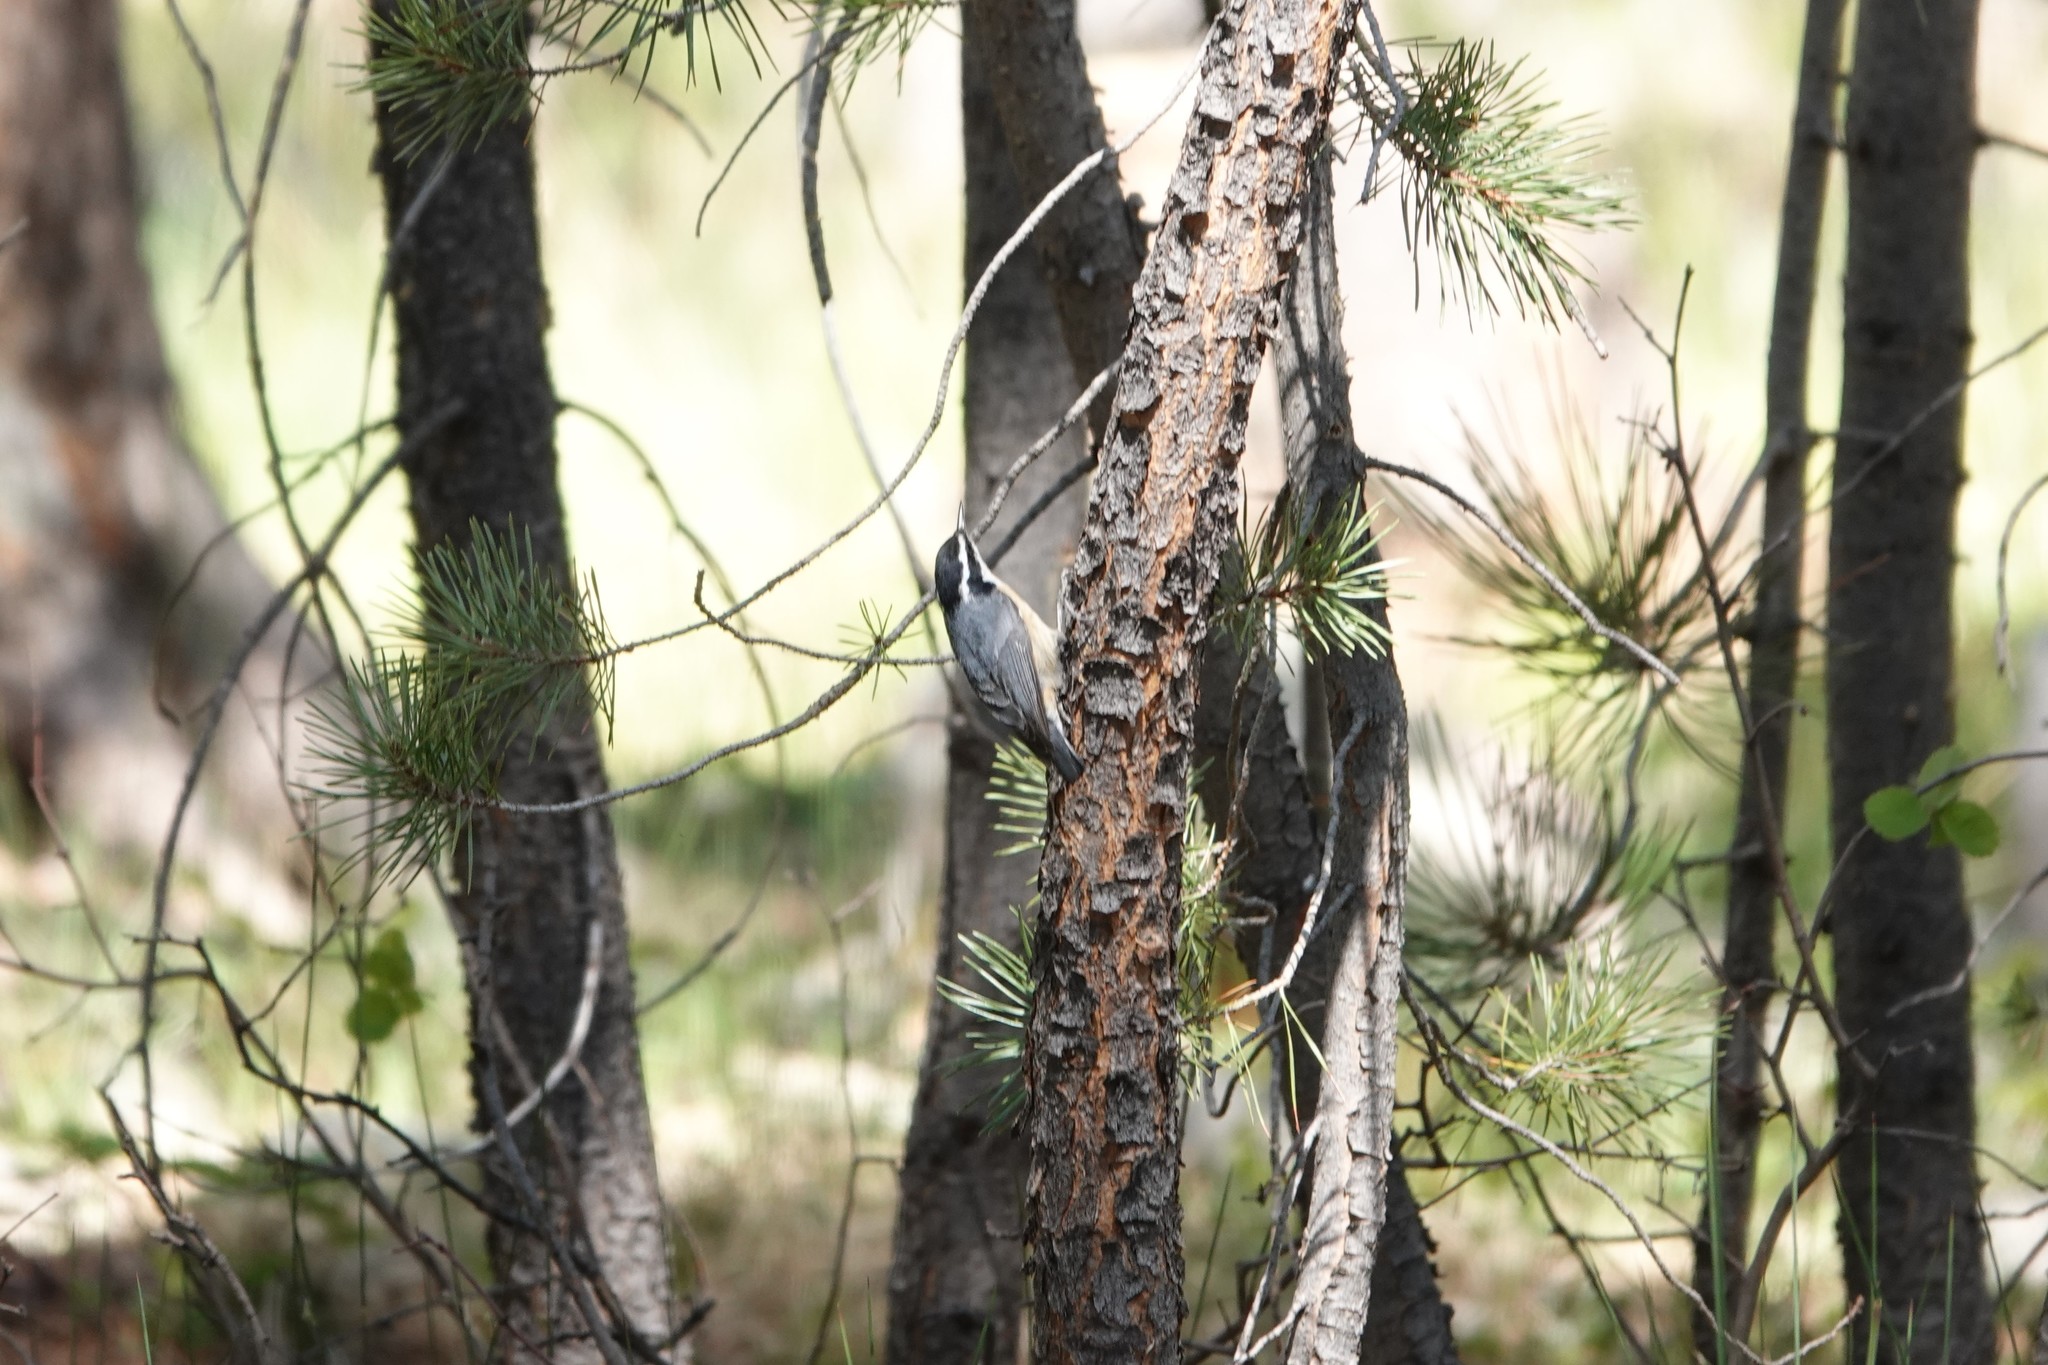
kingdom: Animalia
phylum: Chordata
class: Aves
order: Passeriformes
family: Sittidae
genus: Sitta
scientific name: Sitta canadensis
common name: Red-breasted nuthatch
